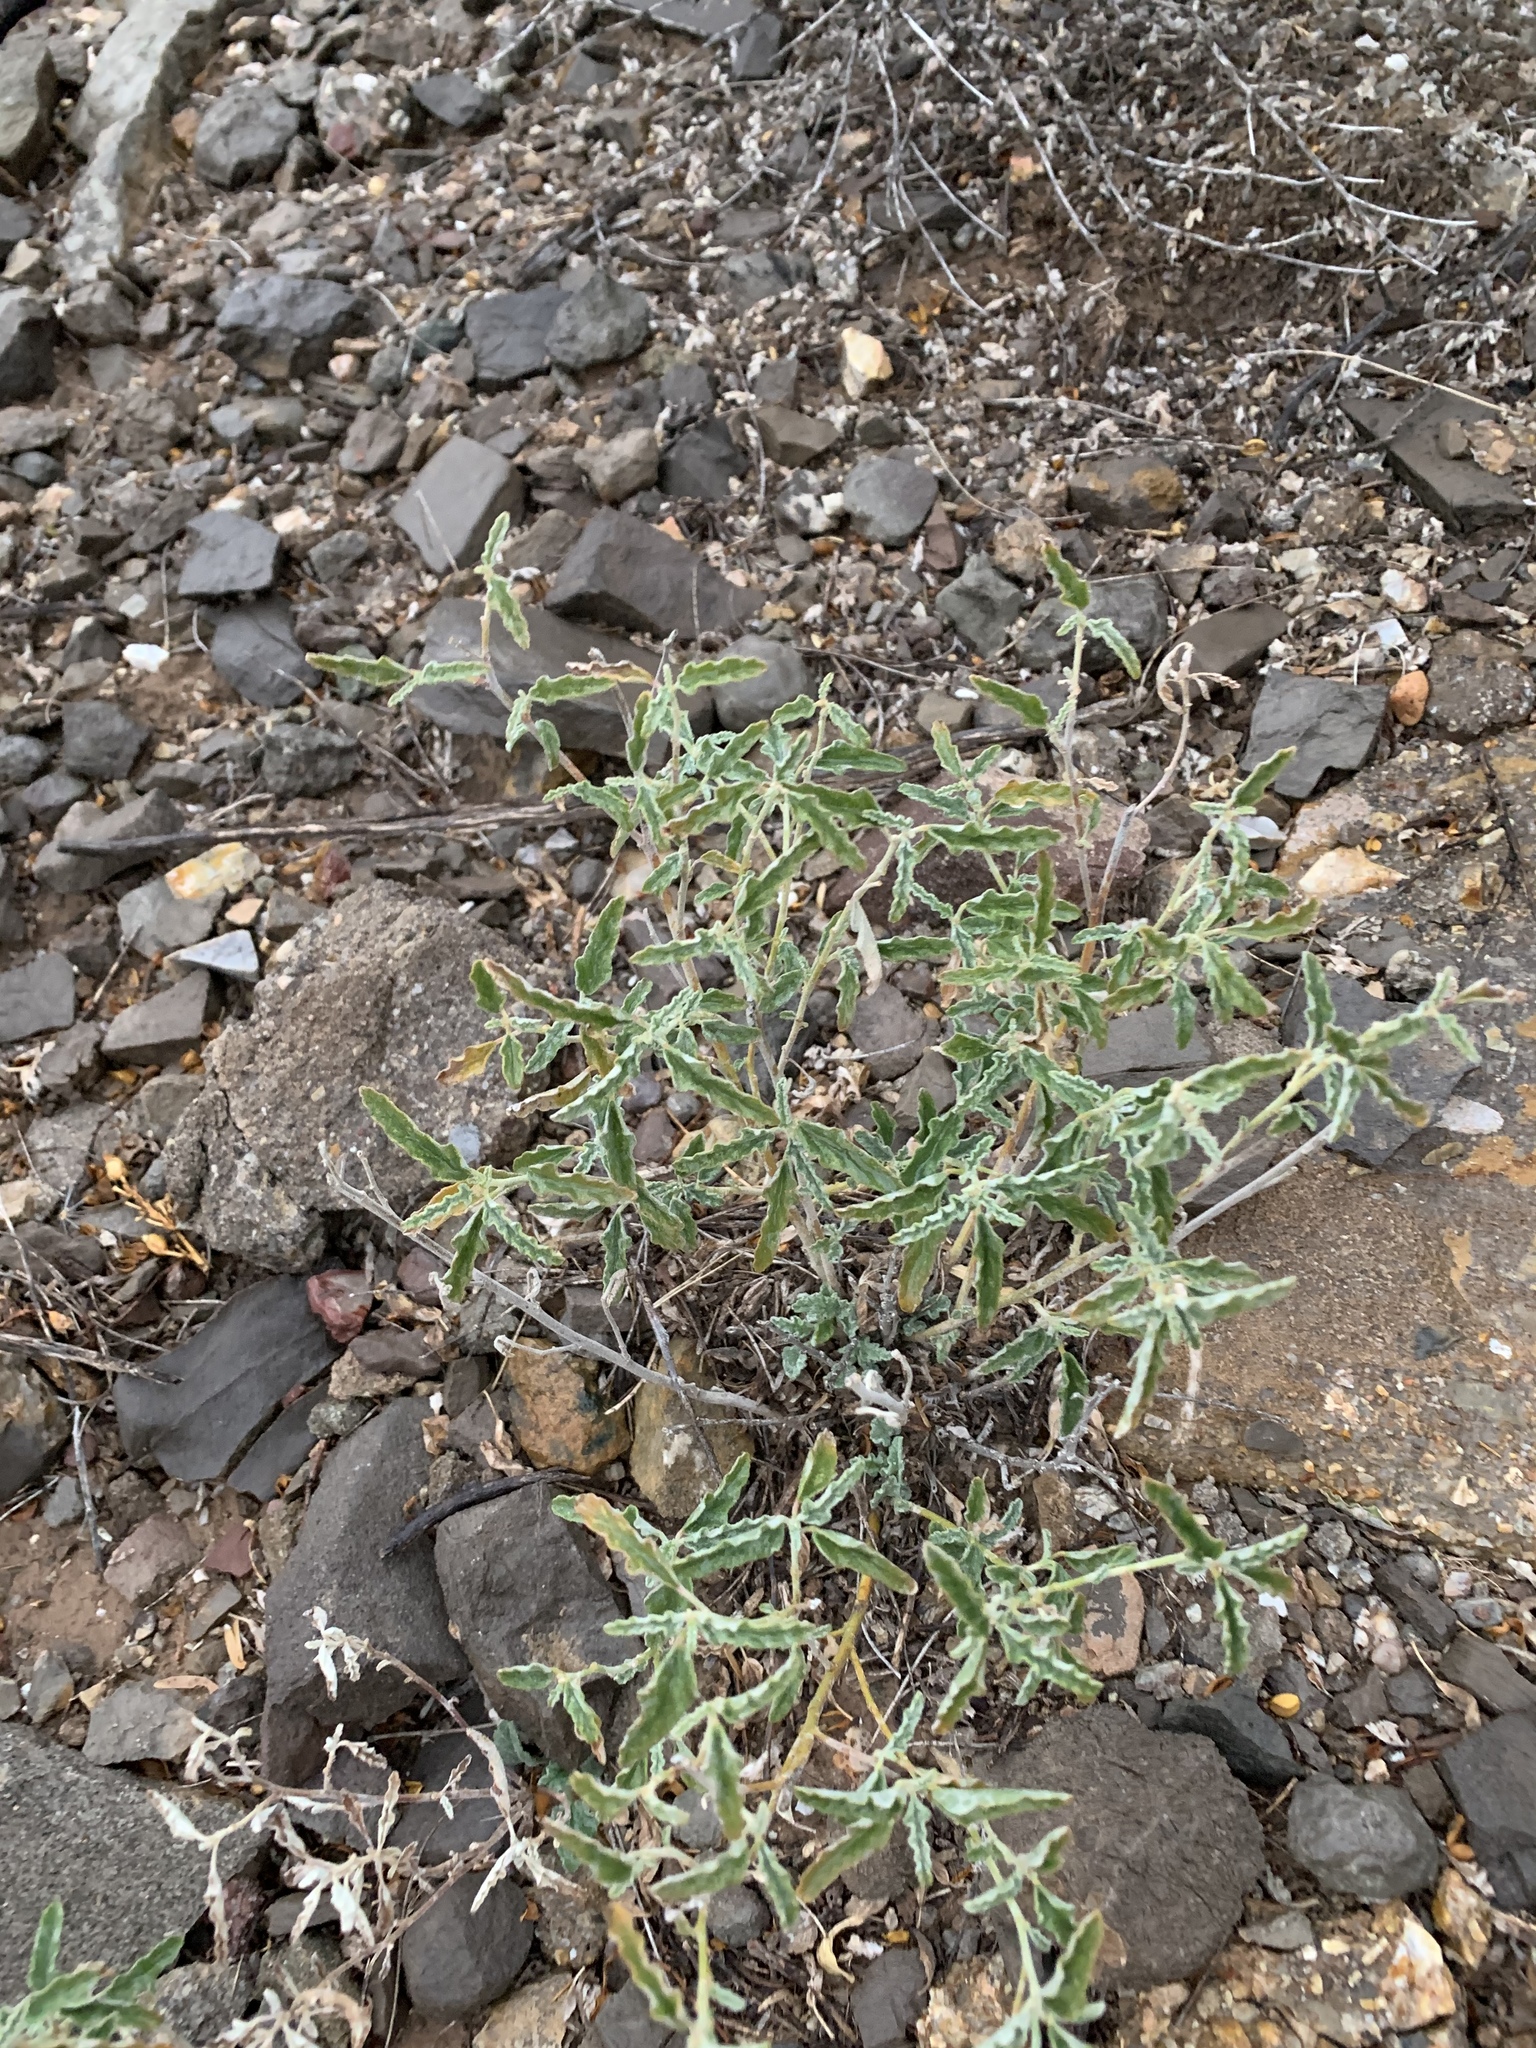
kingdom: Plantae
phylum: Tracheophyta
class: Magnoliopsida
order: Malvales
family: Malvaceae
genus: Sphaeralcea
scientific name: Sphaeralcea hastulata
